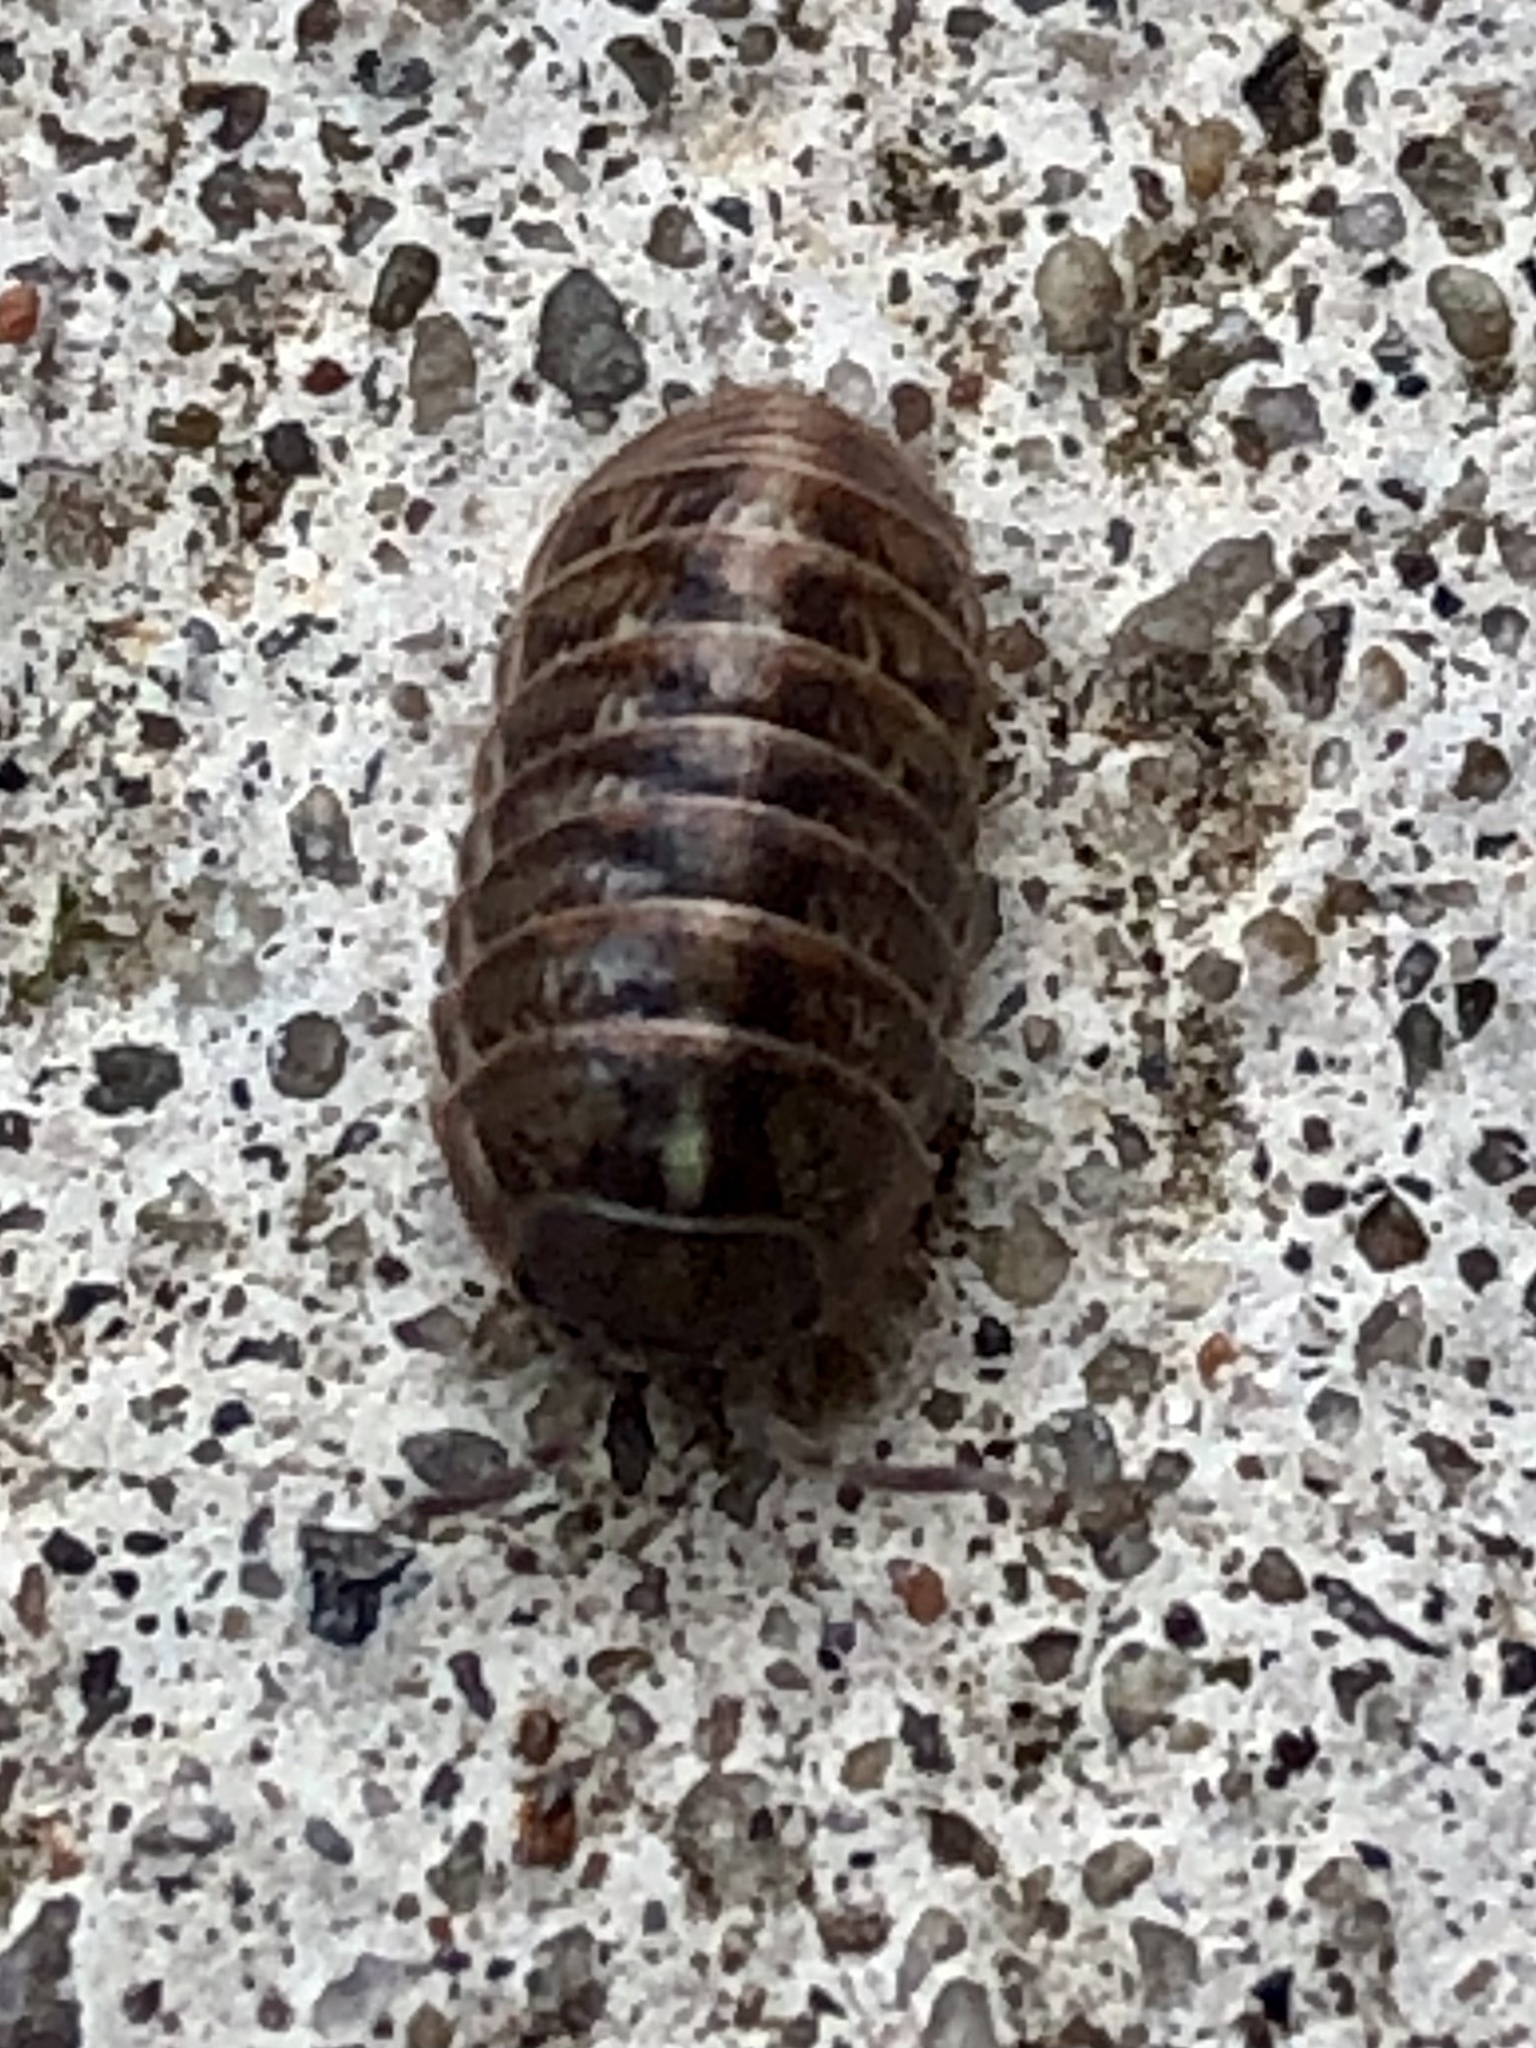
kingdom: Animalia
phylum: Arthropoda
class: Malacostraca
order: Isopoda
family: Armadillidiidae
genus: Armadillidium
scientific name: Armadillidium vulgare
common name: Common pill woodlouse
